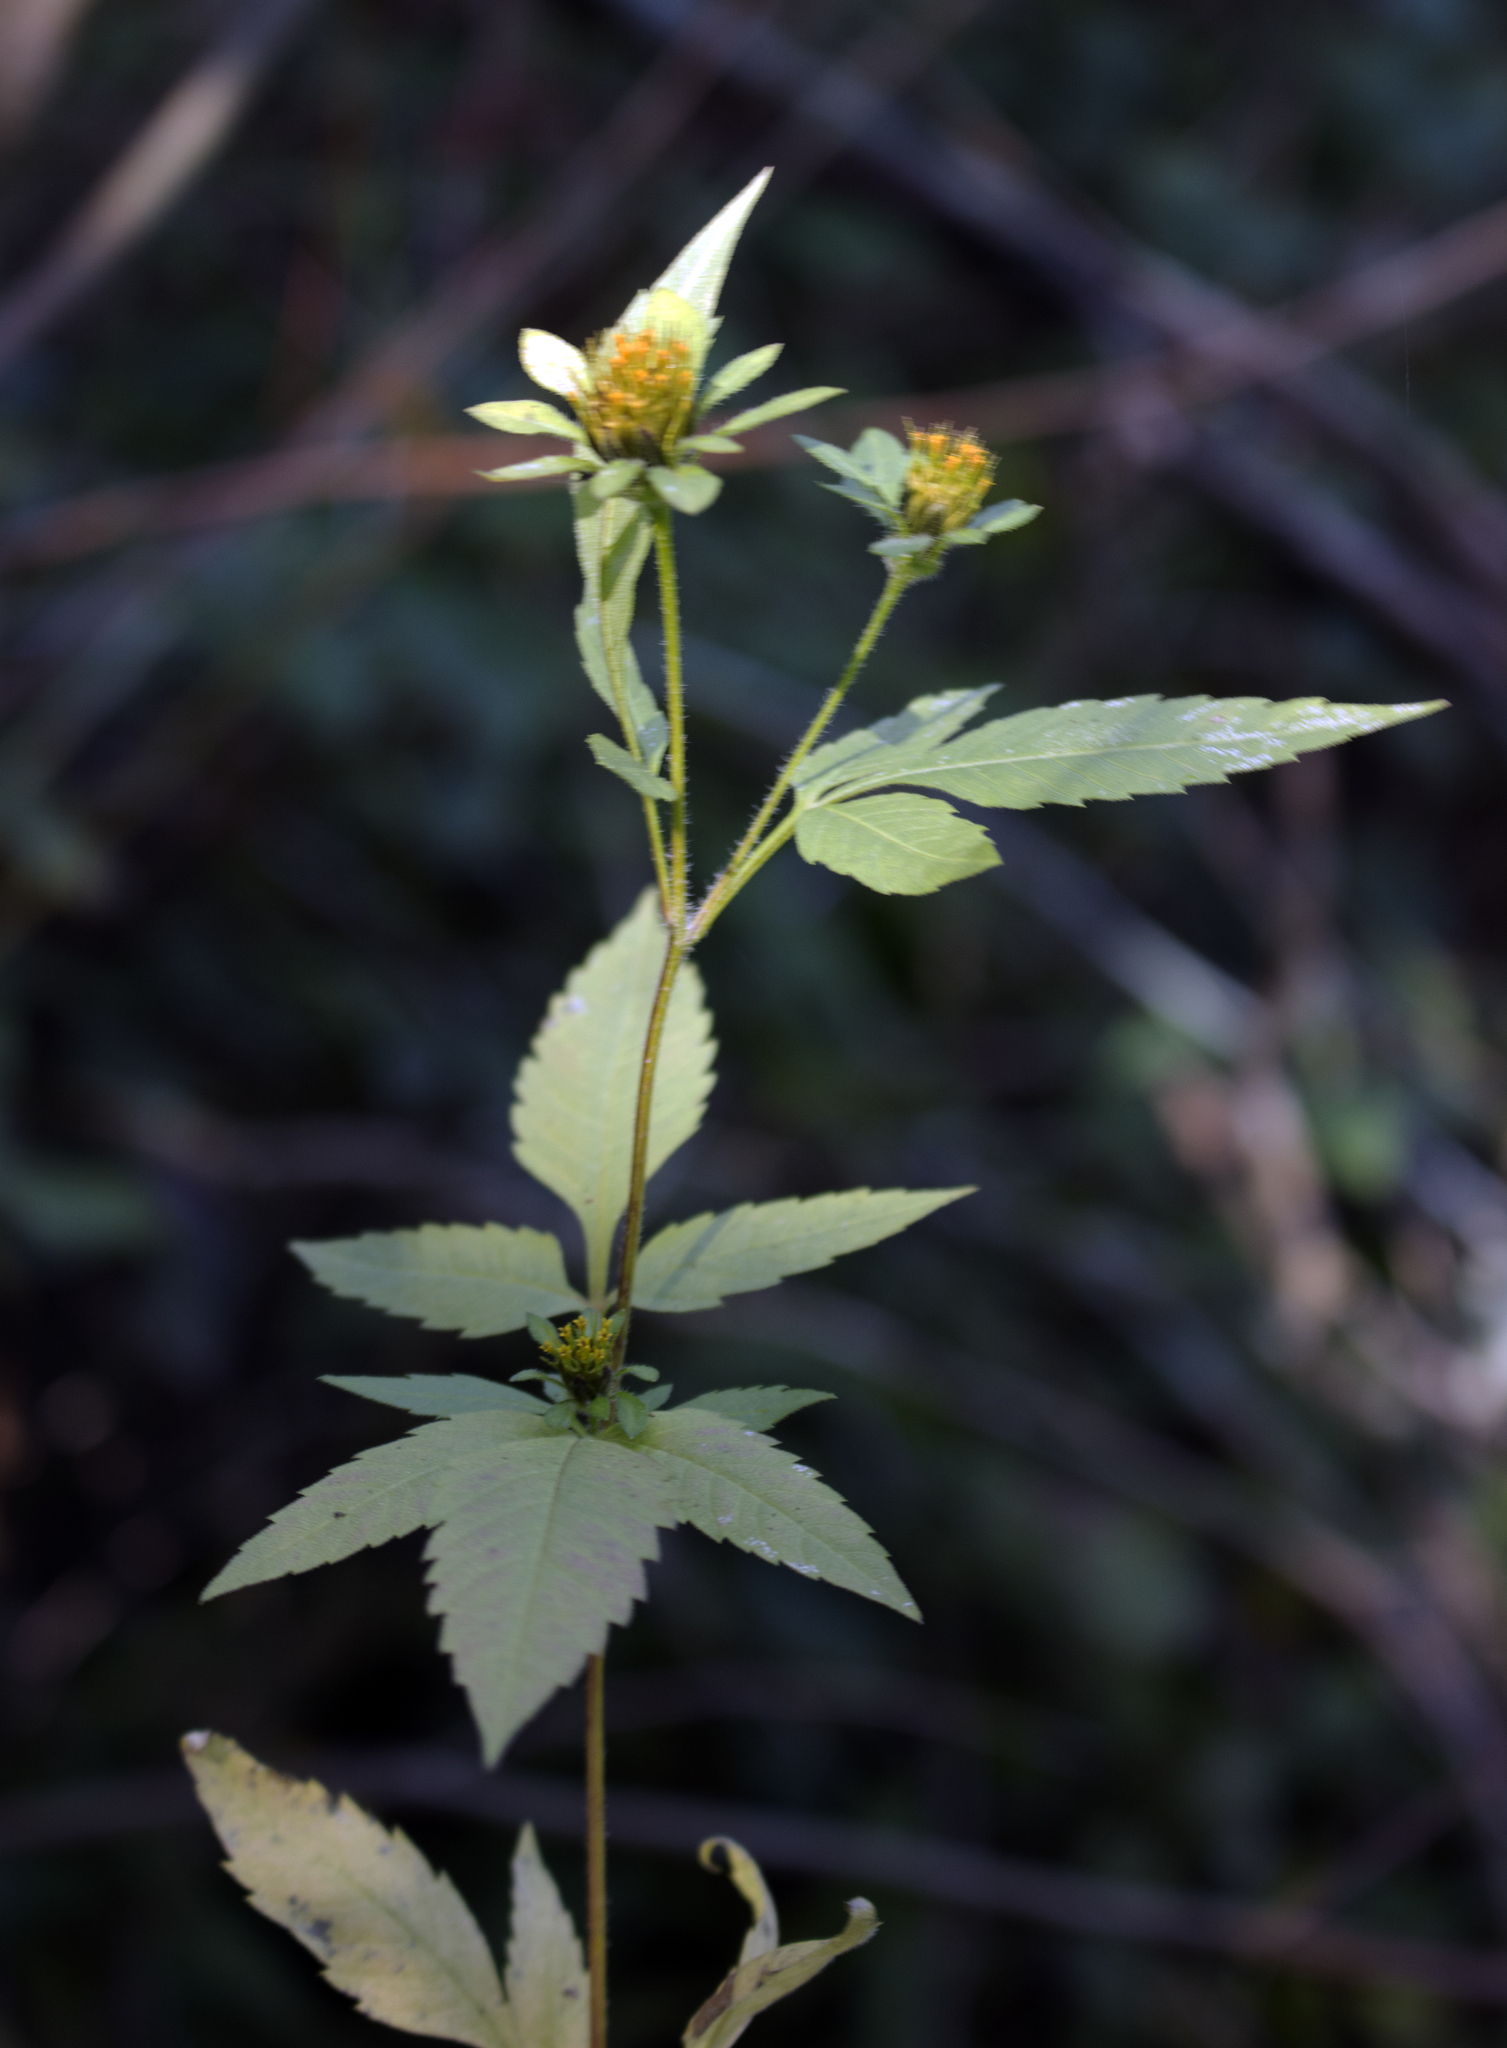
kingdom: Plantae
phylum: Tracheophyta
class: Magnoliopsida
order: Asterales
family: Asteraceae
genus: Bidens
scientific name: Bidens frondosa
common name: Beggarticks
